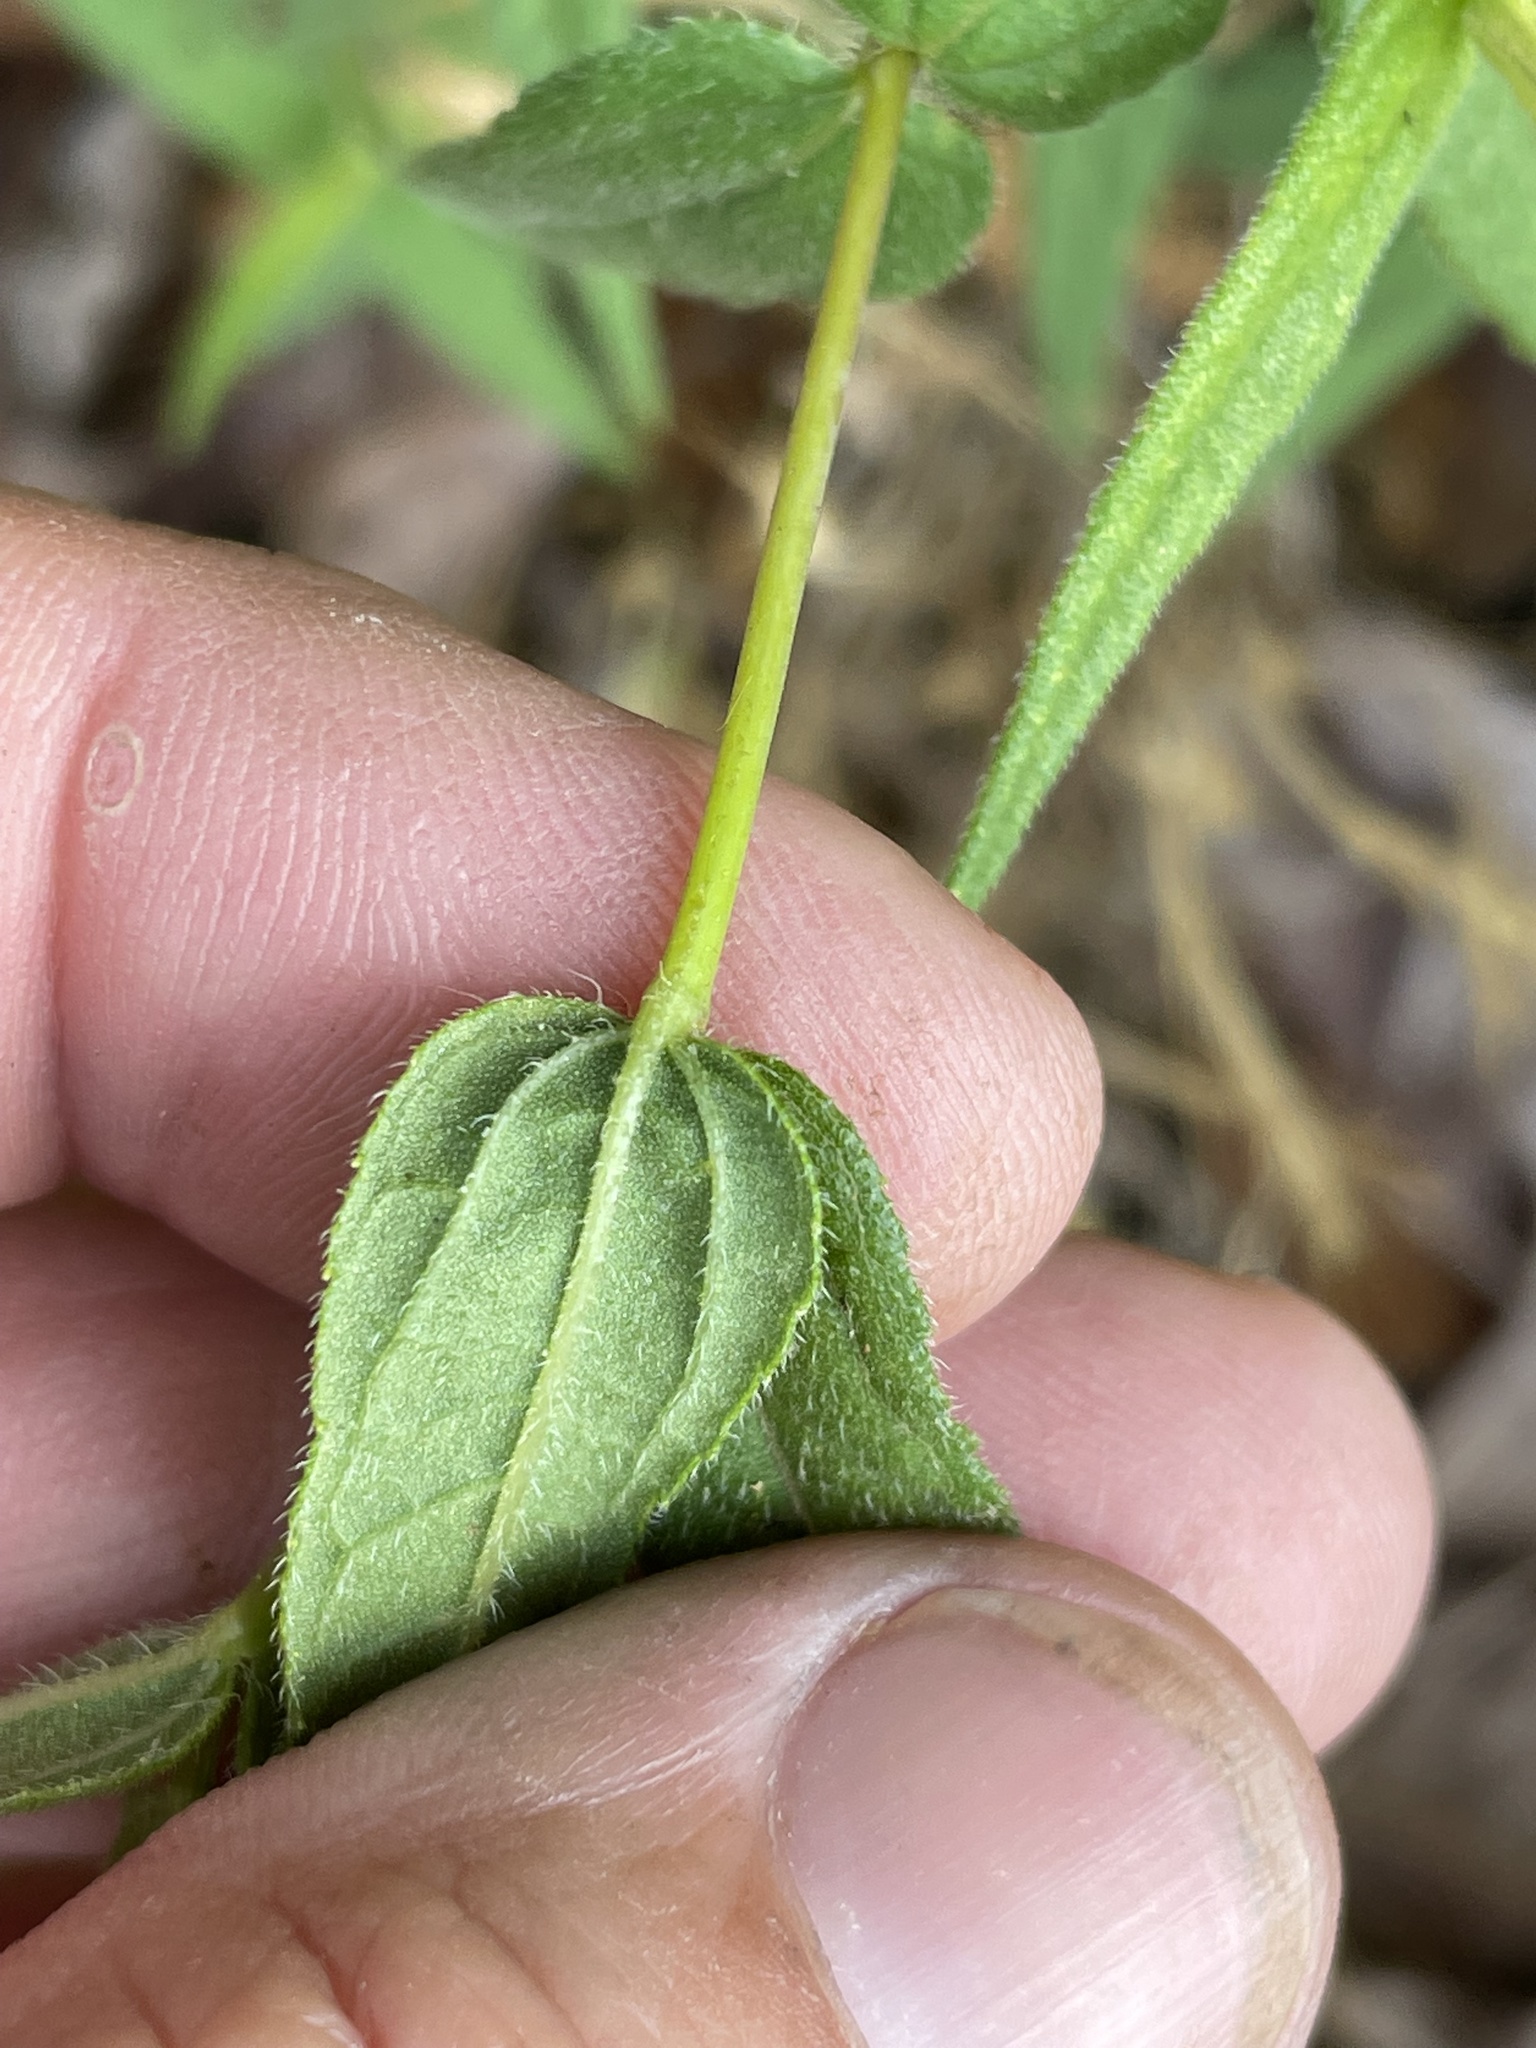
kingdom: Plantae
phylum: Tracheophyta
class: Magnoliopsida
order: Asterales
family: Asteraceae
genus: Helianthus
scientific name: Helianthus divaricatus
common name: Divergent sunflower
